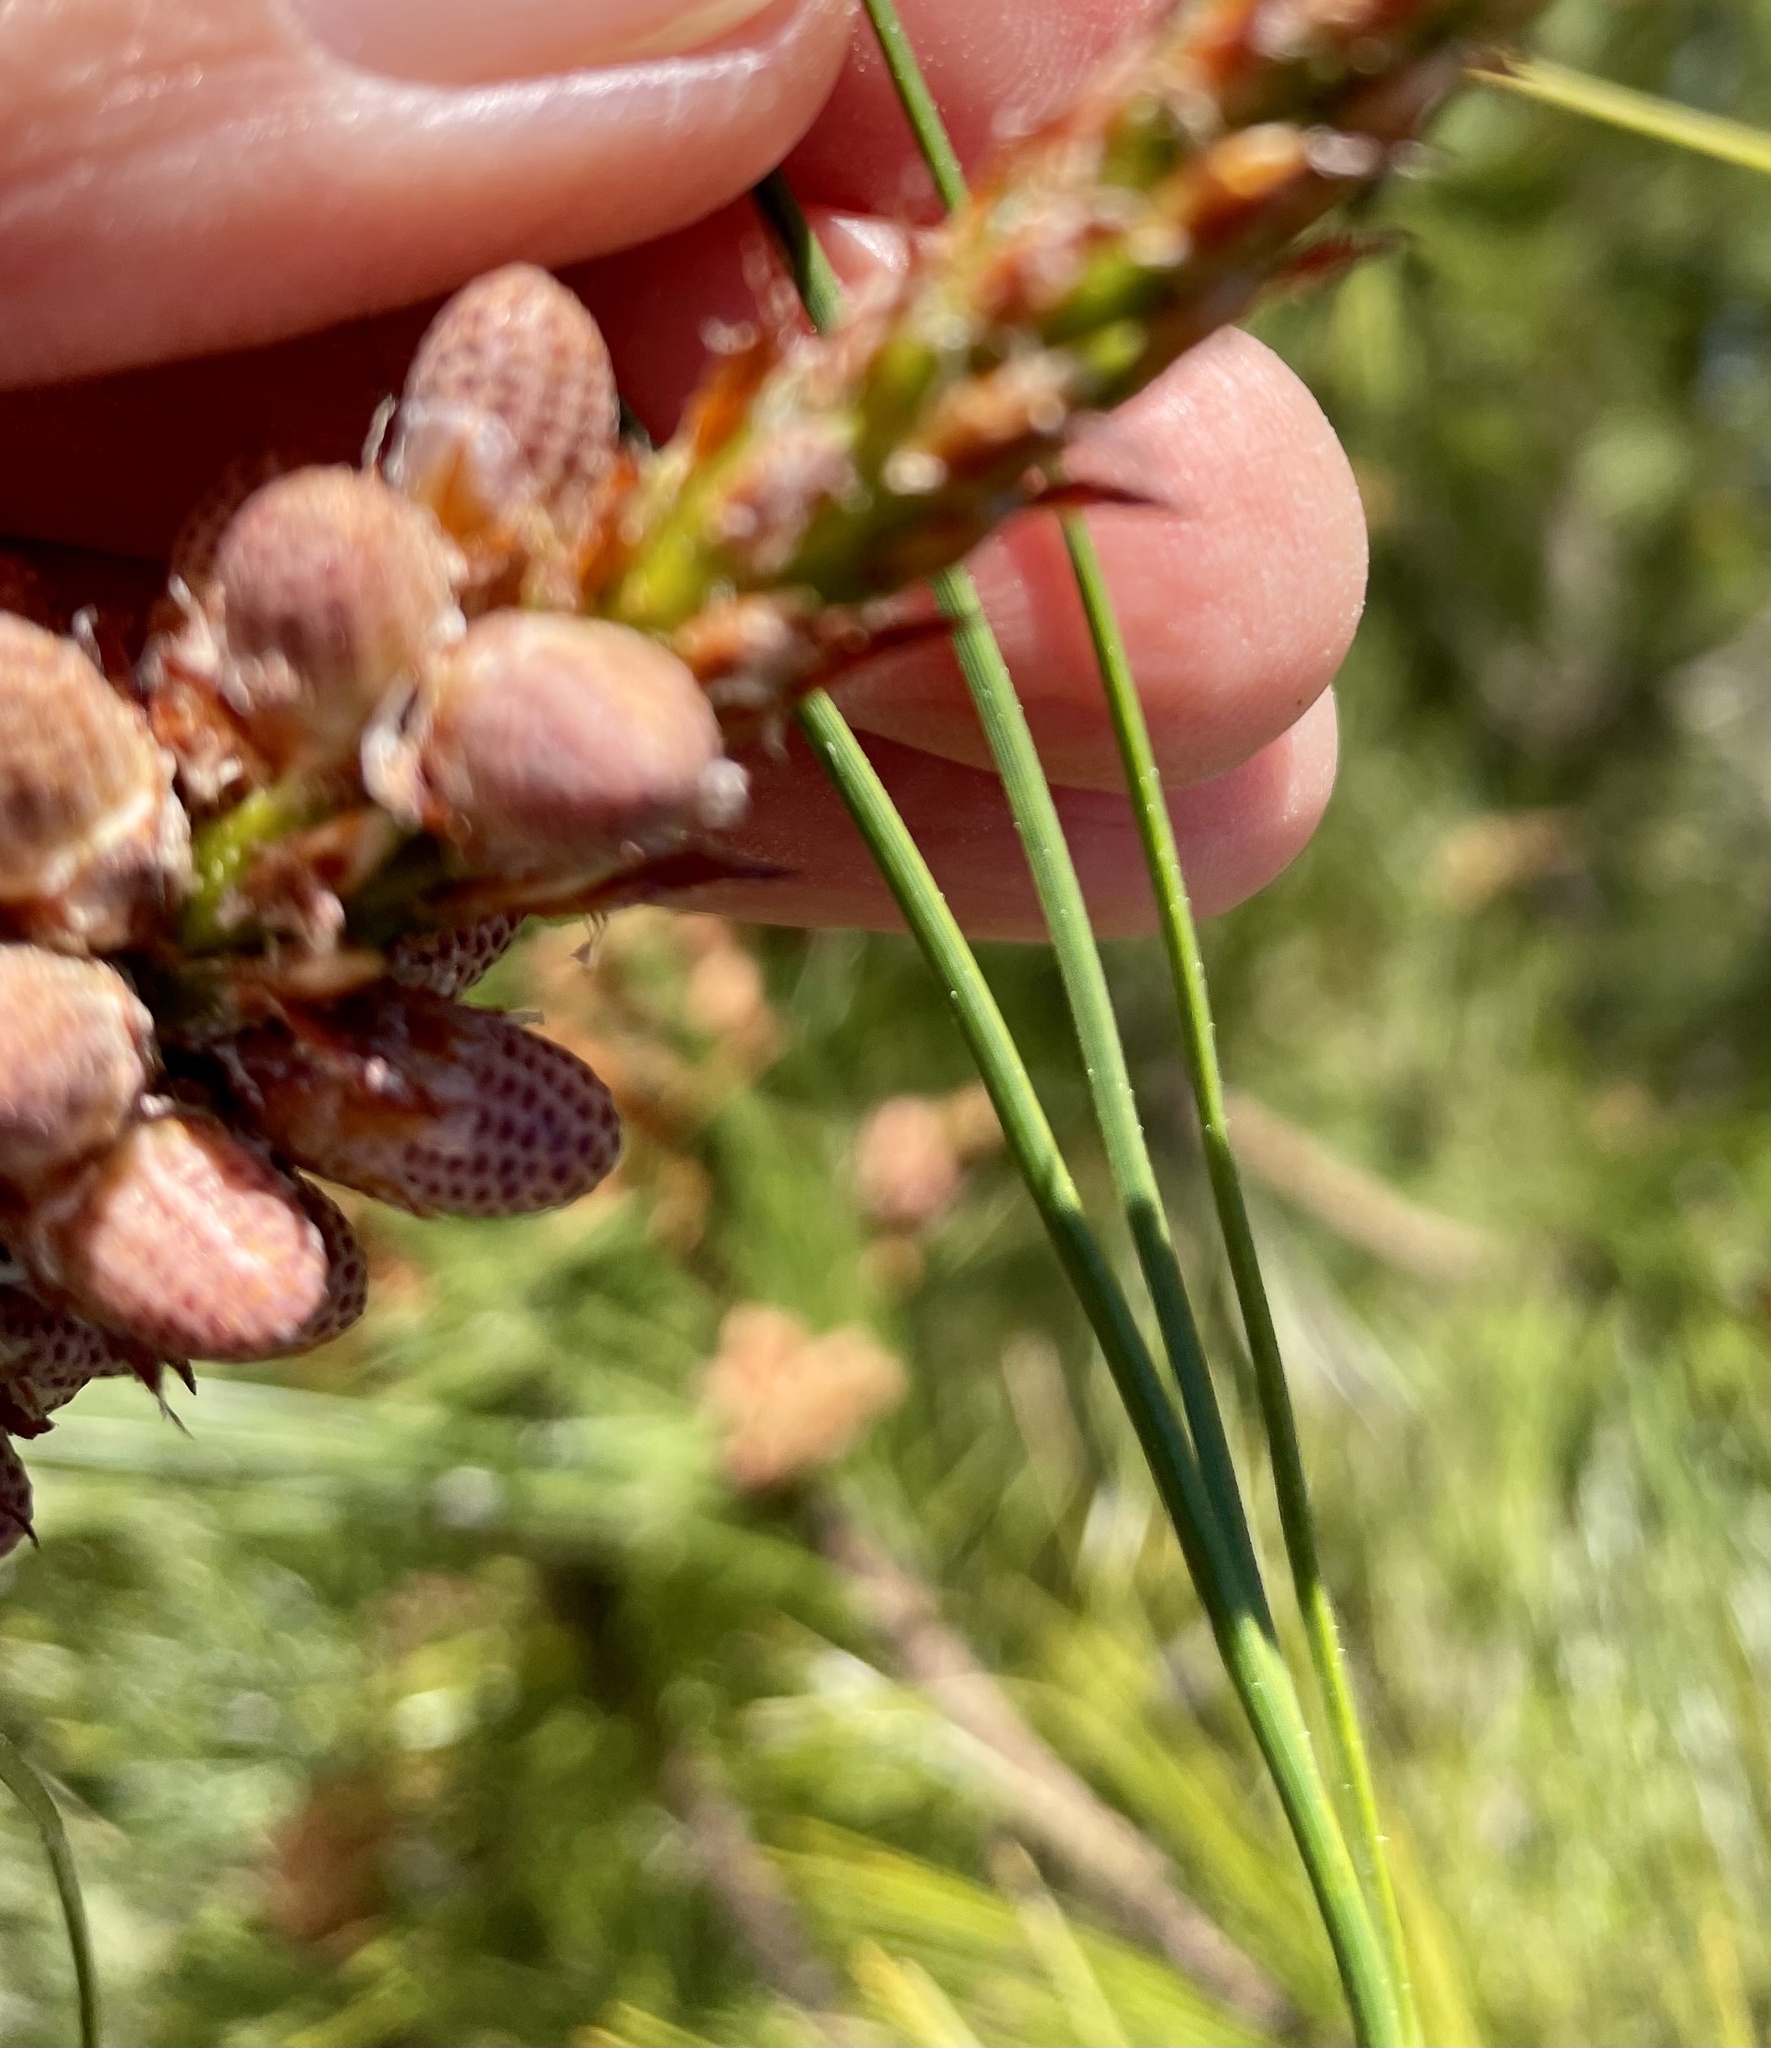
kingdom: Plantae
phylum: Tracheophyta
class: Pinopsida
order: Pinales
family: Pinaceae
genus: Pinus
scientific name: Pinus attenuata
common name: Knobcone pine
